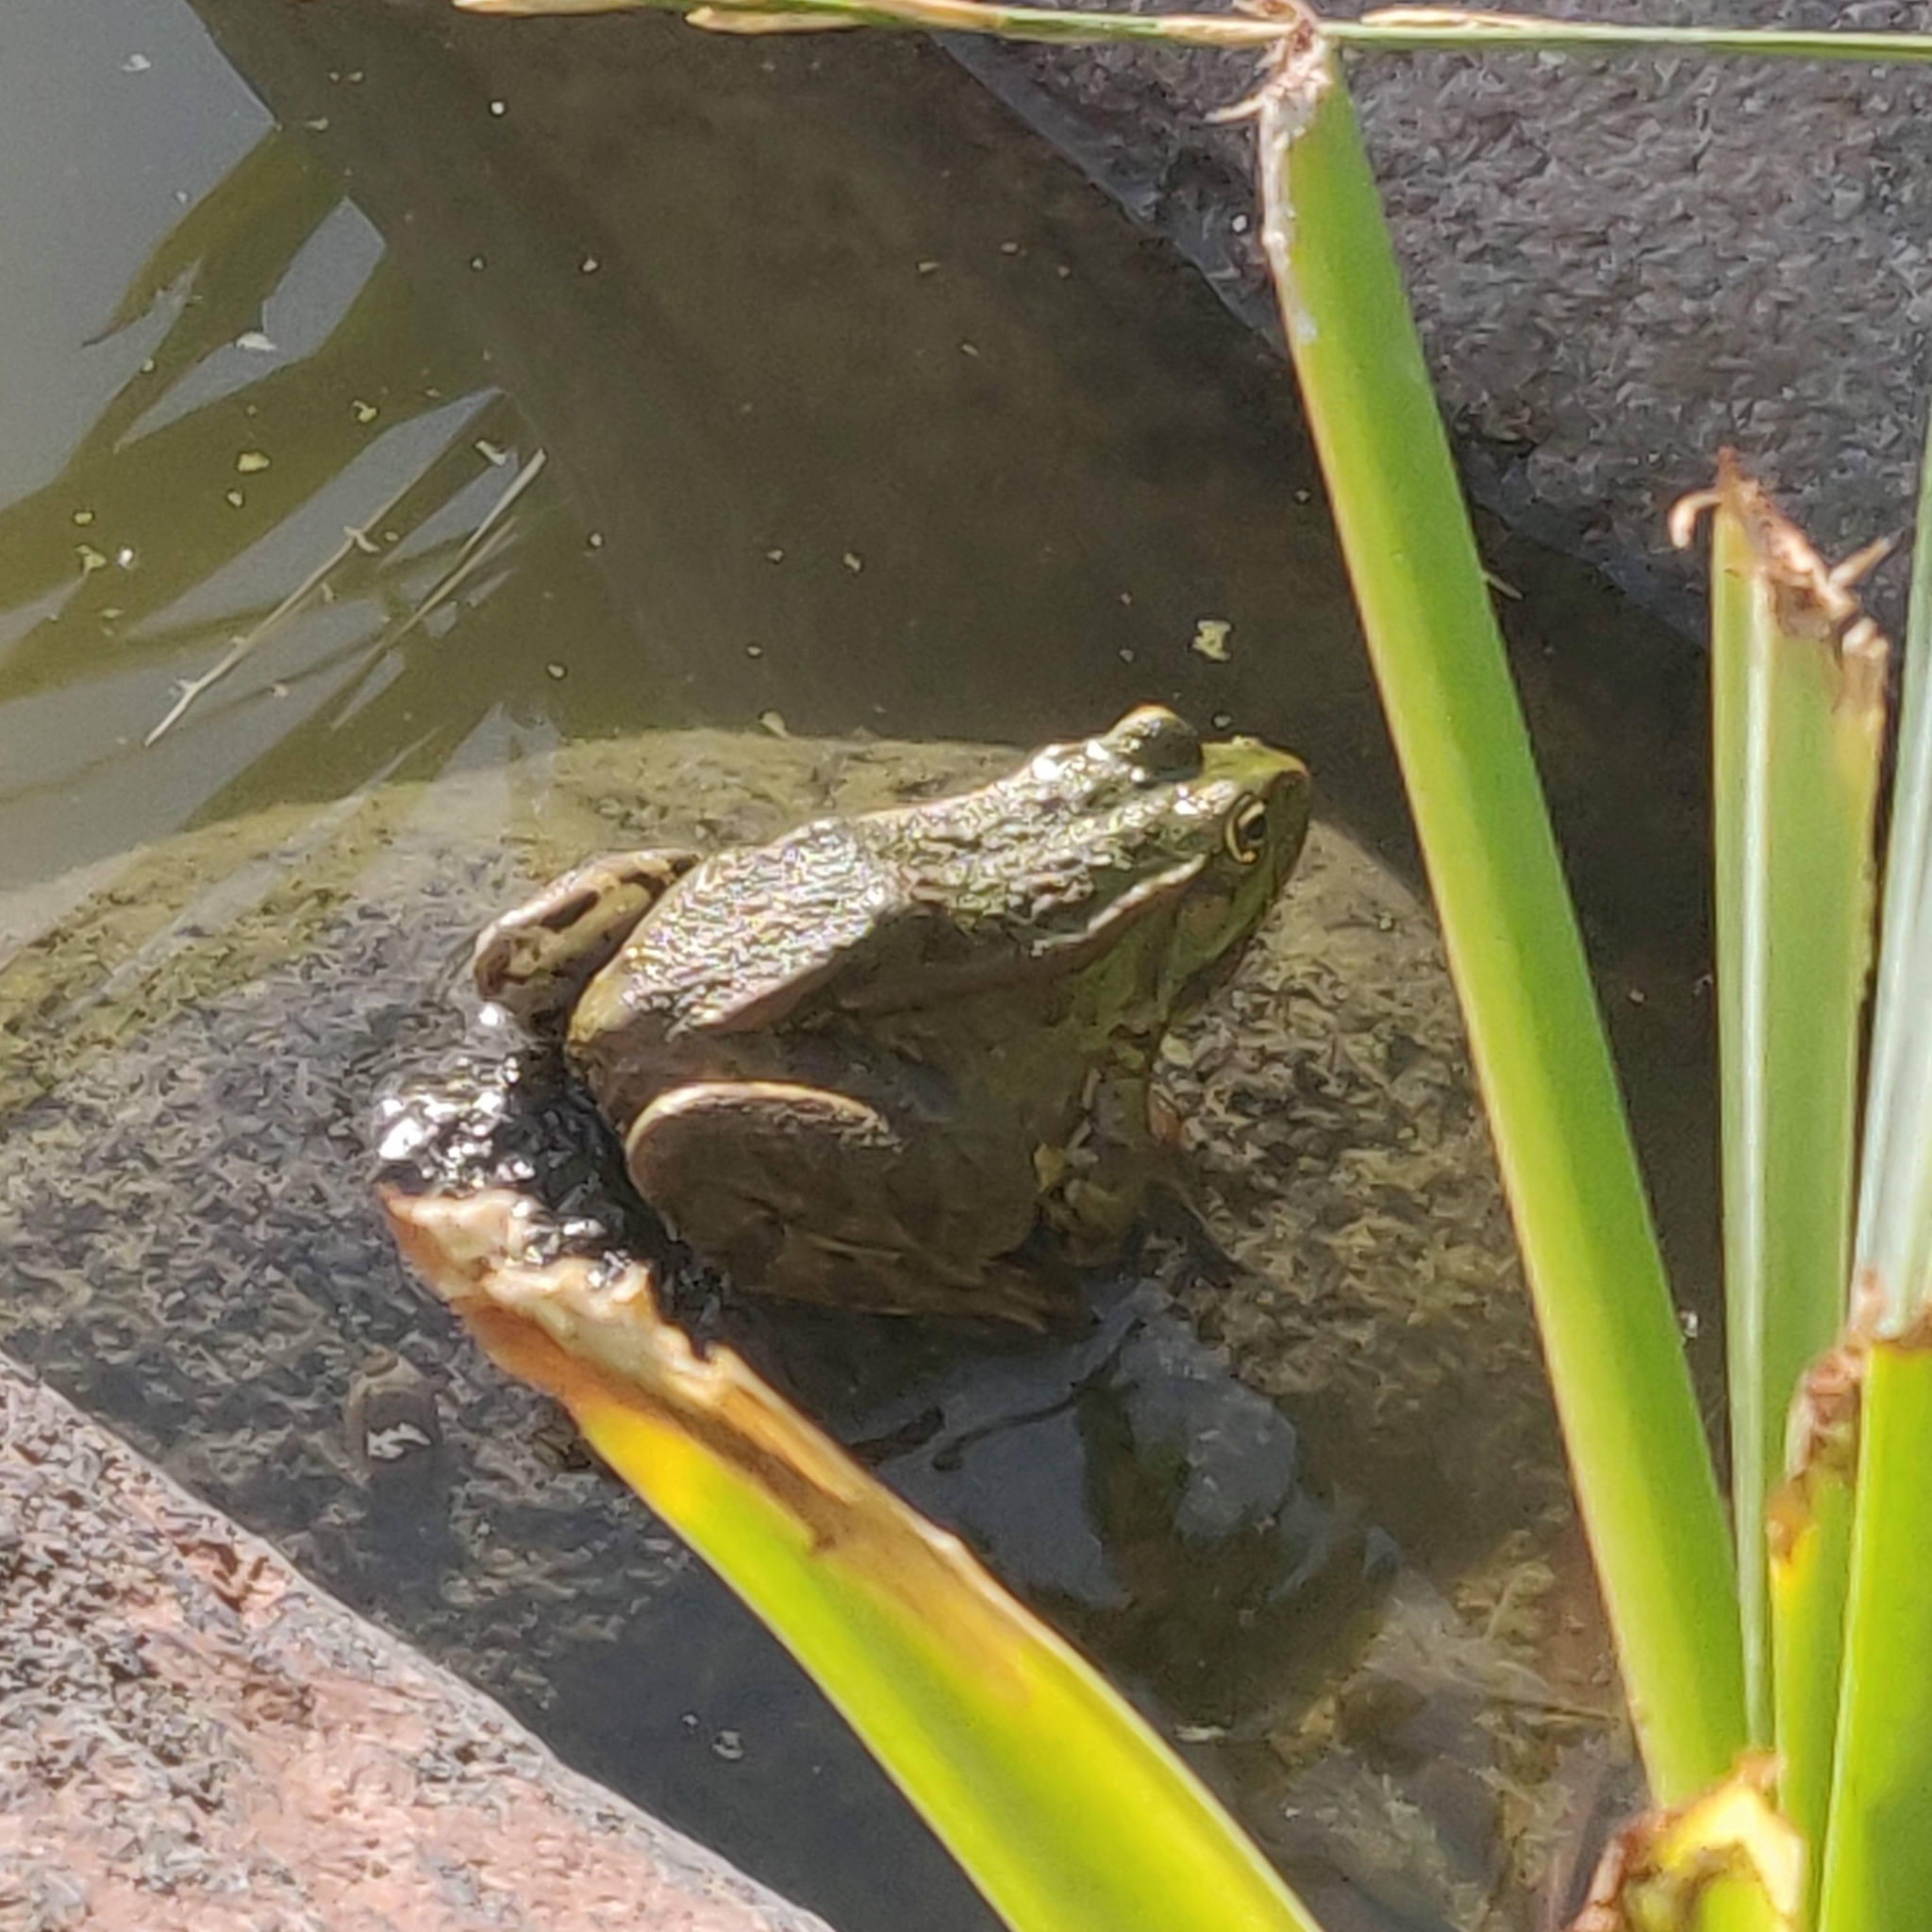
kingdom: Animalia
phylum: Chordata
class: Amphibia
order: Anura
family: Ranidae
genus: Pelophylax
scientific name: Pelophylax ridibundus
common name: Marsh frog
